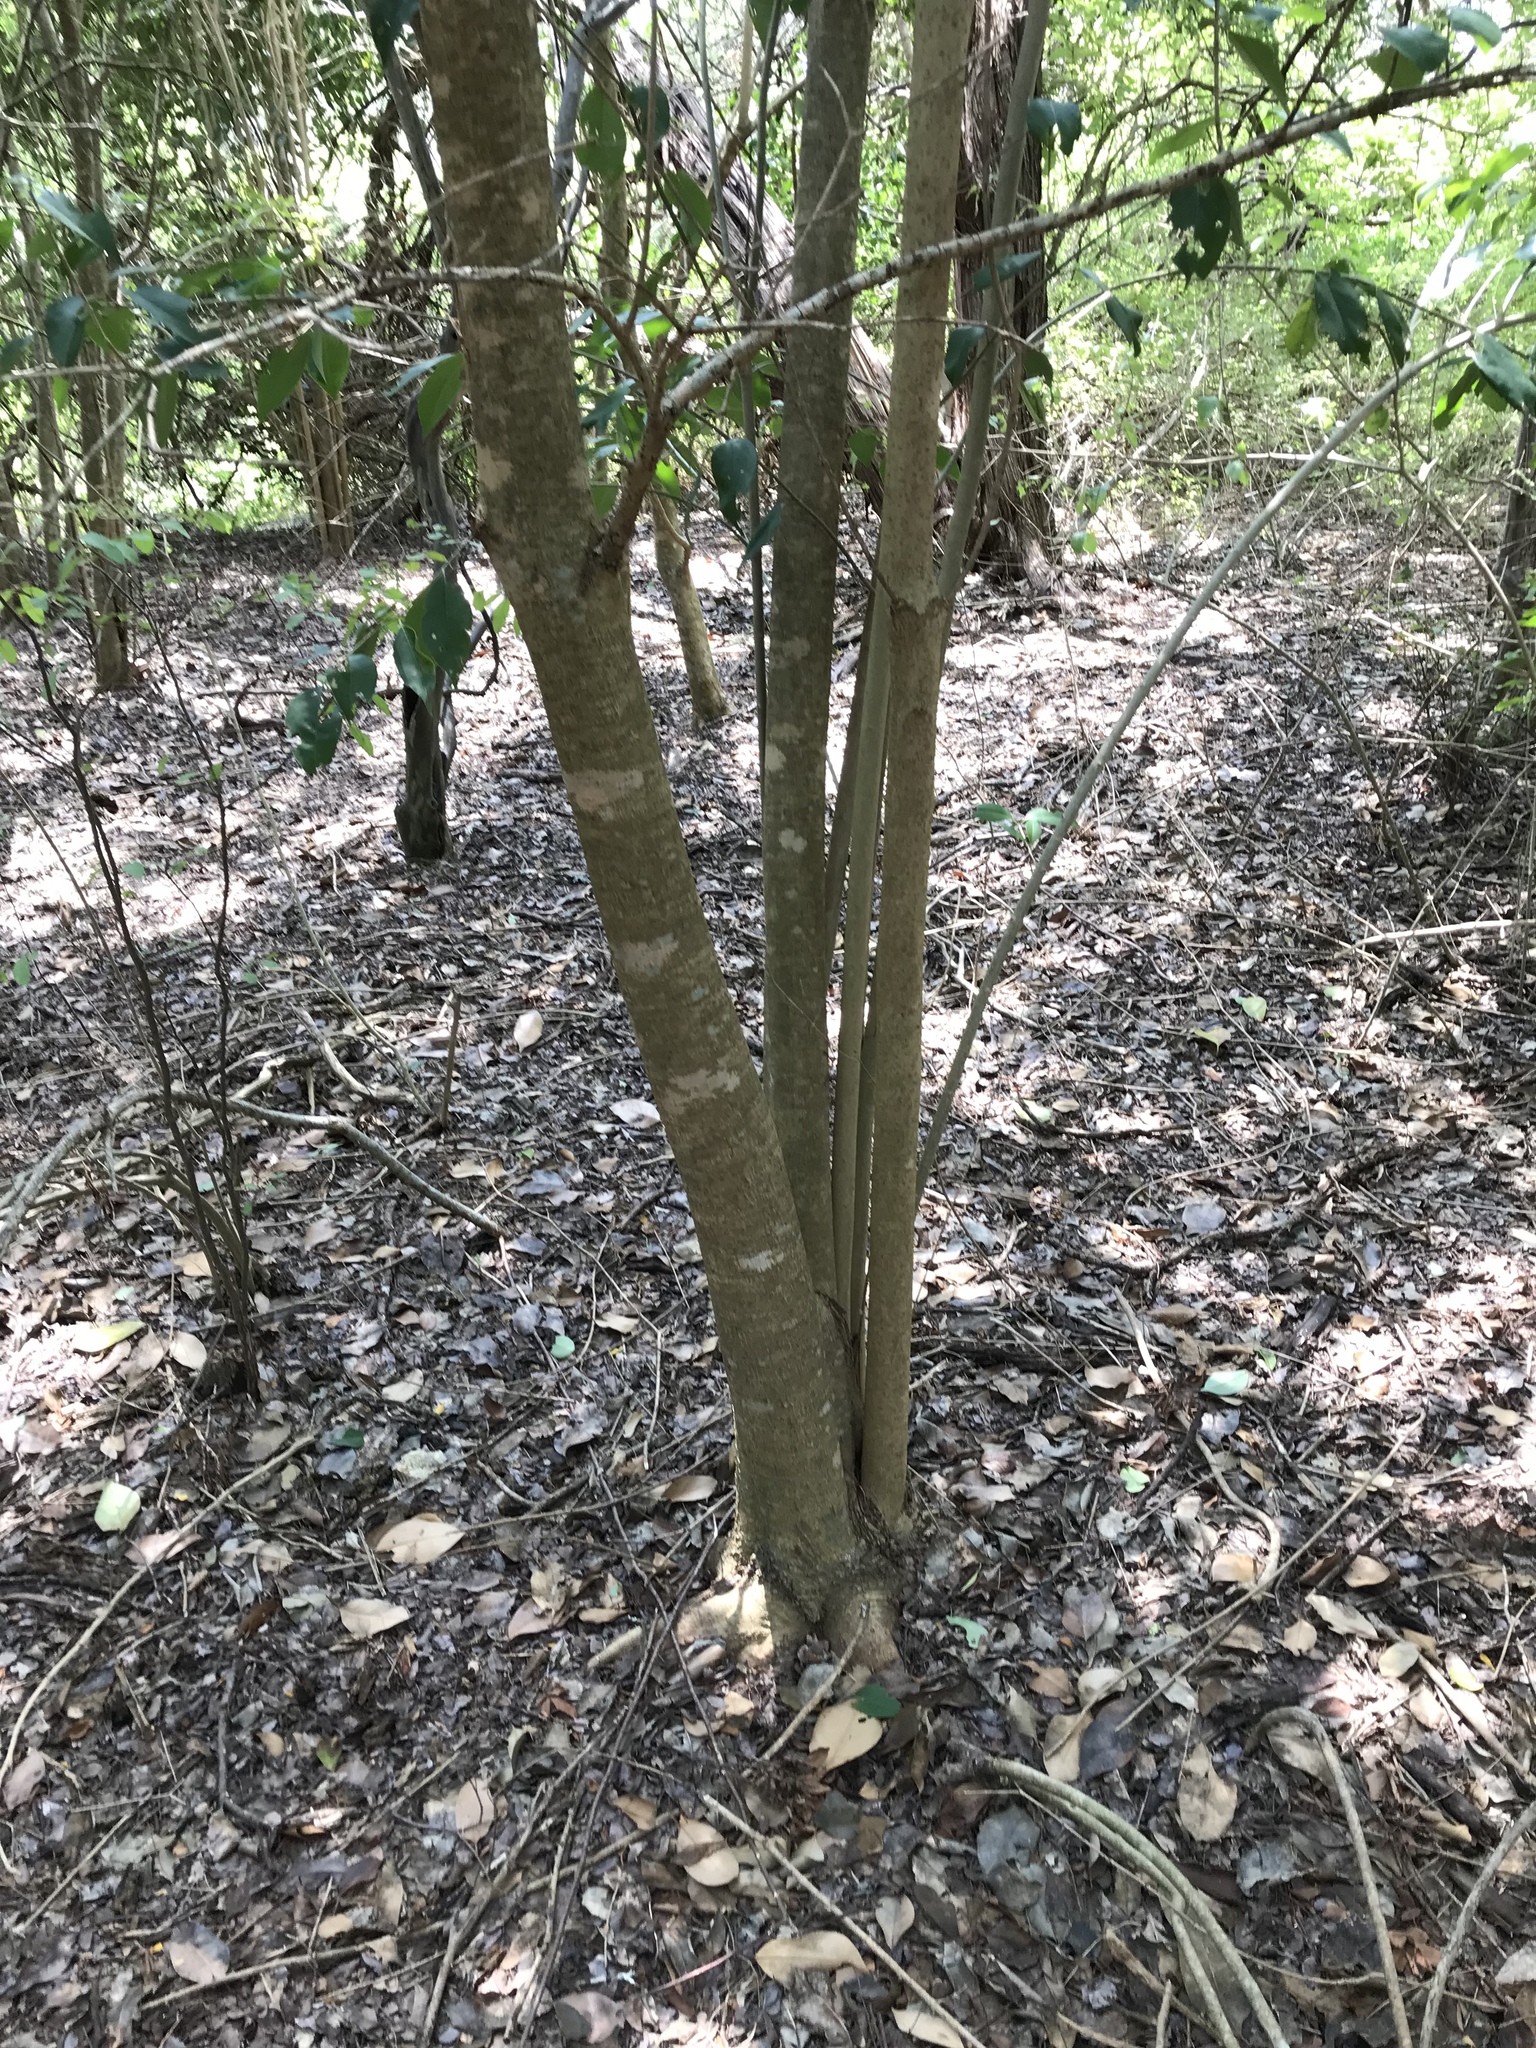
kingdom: Plantae
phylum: Tracheophyta
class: Magnoliopsida
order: Lamiales
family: Oleaceae
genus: Ligustrum
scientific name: Ligustrum lucidum
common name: Glossy privet
